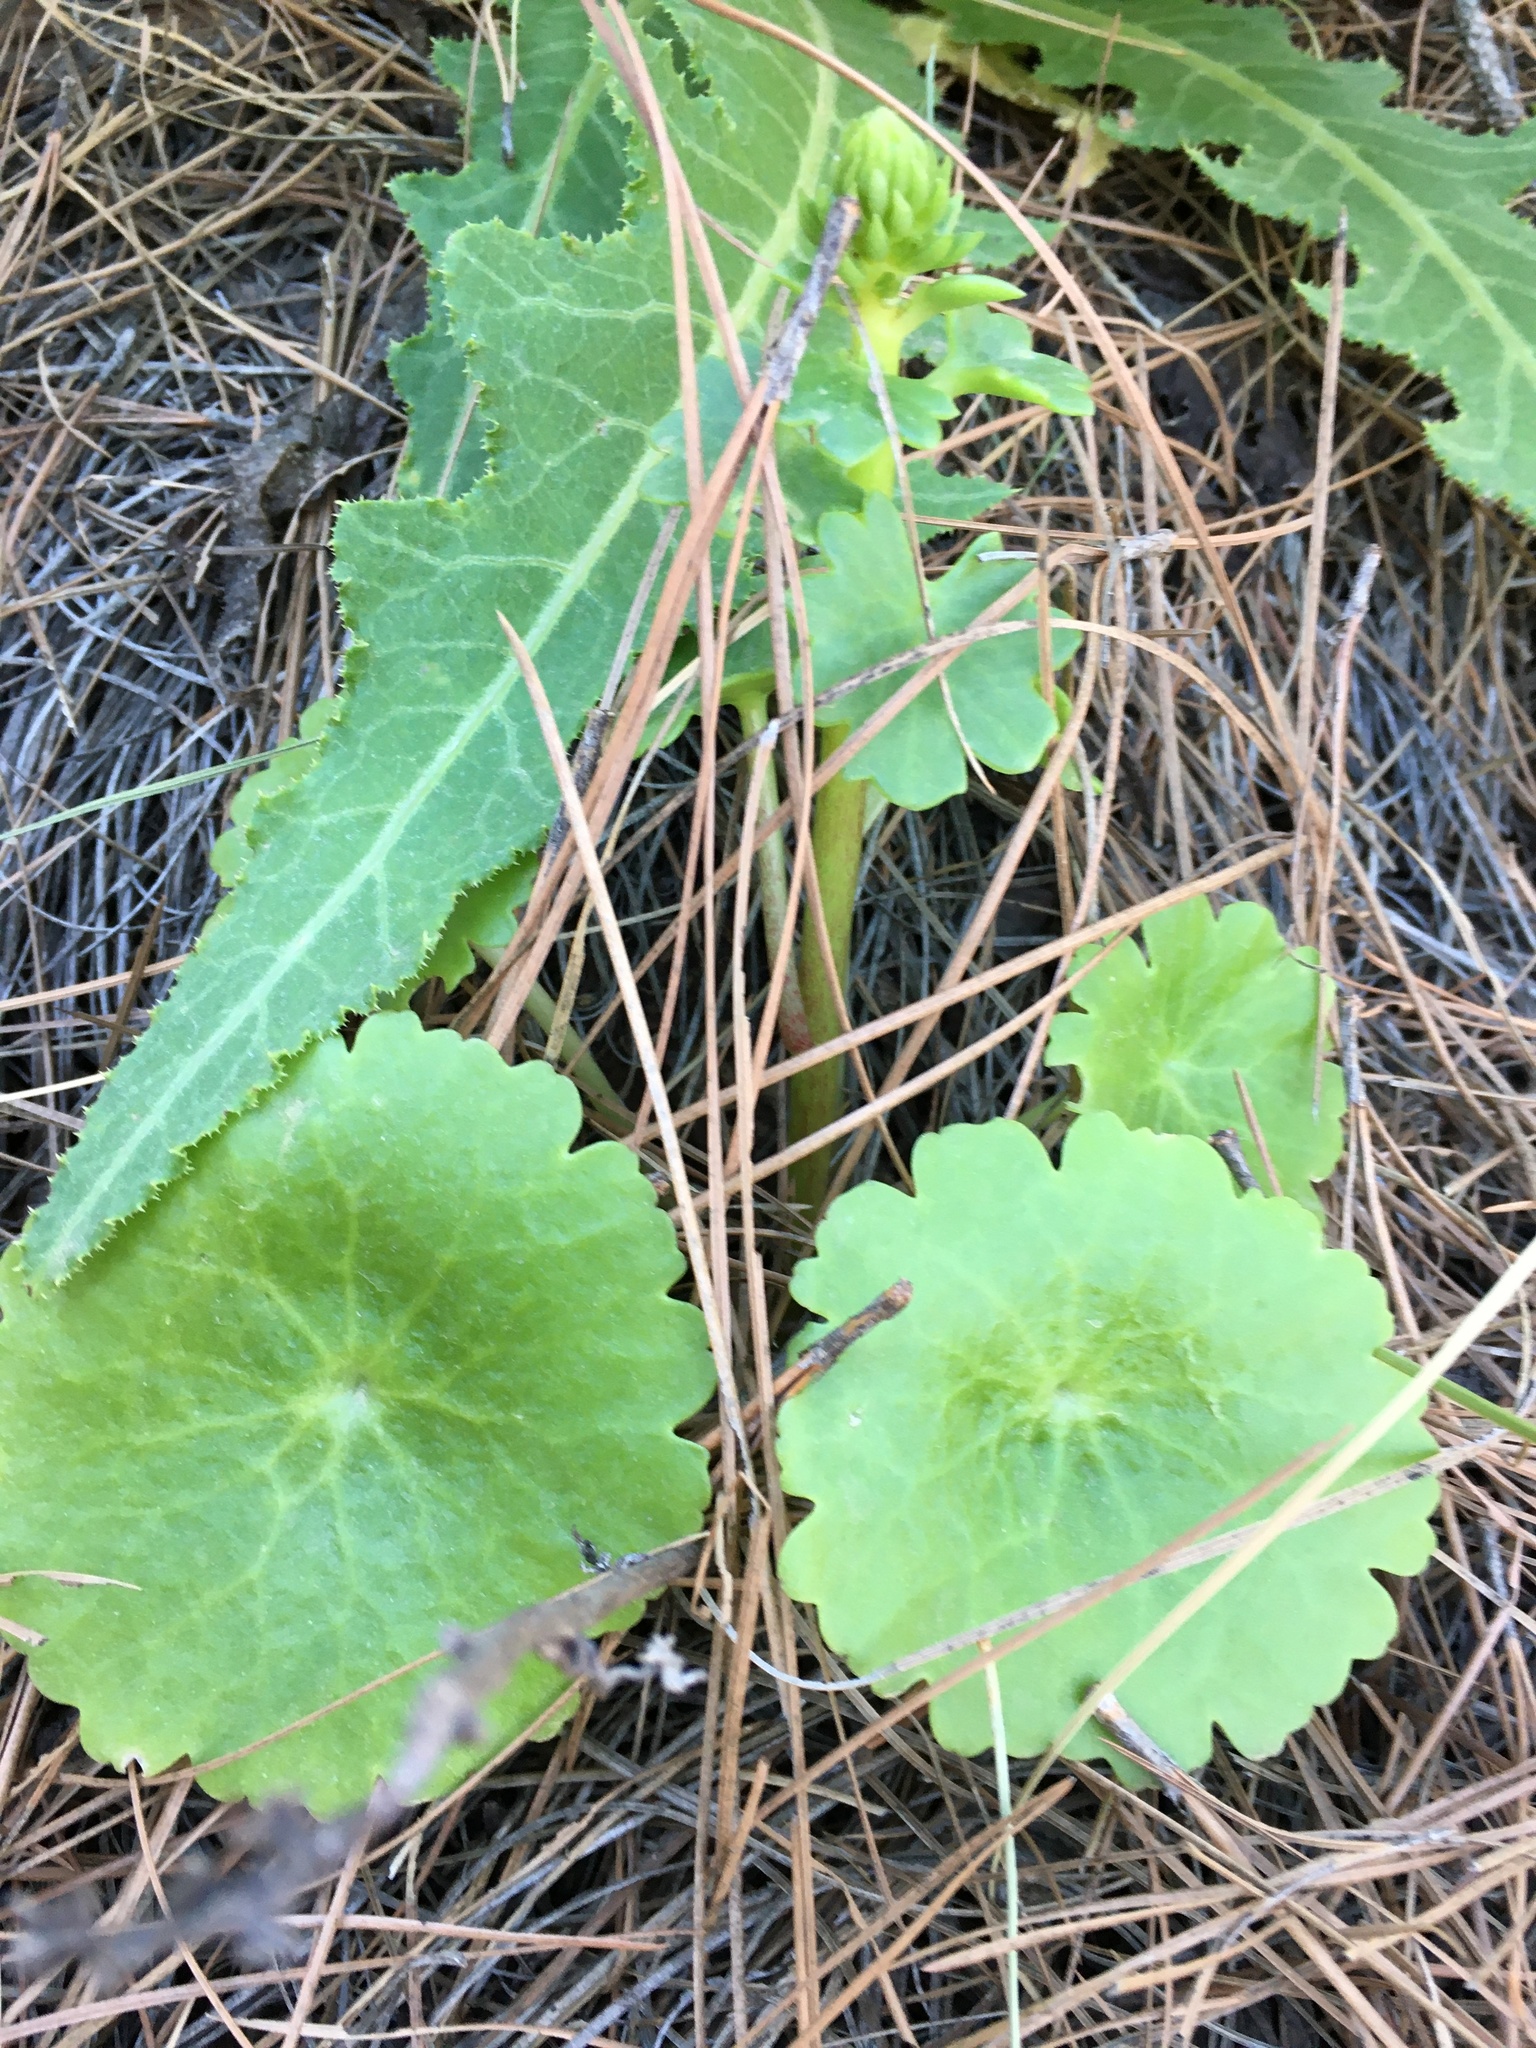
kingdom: Plantae
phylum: Tracheophyta
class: Magnoliopsida
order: Saxifragales
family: Crassulaceae
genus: Umbilicus
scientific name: Umbilicus horizontalis
